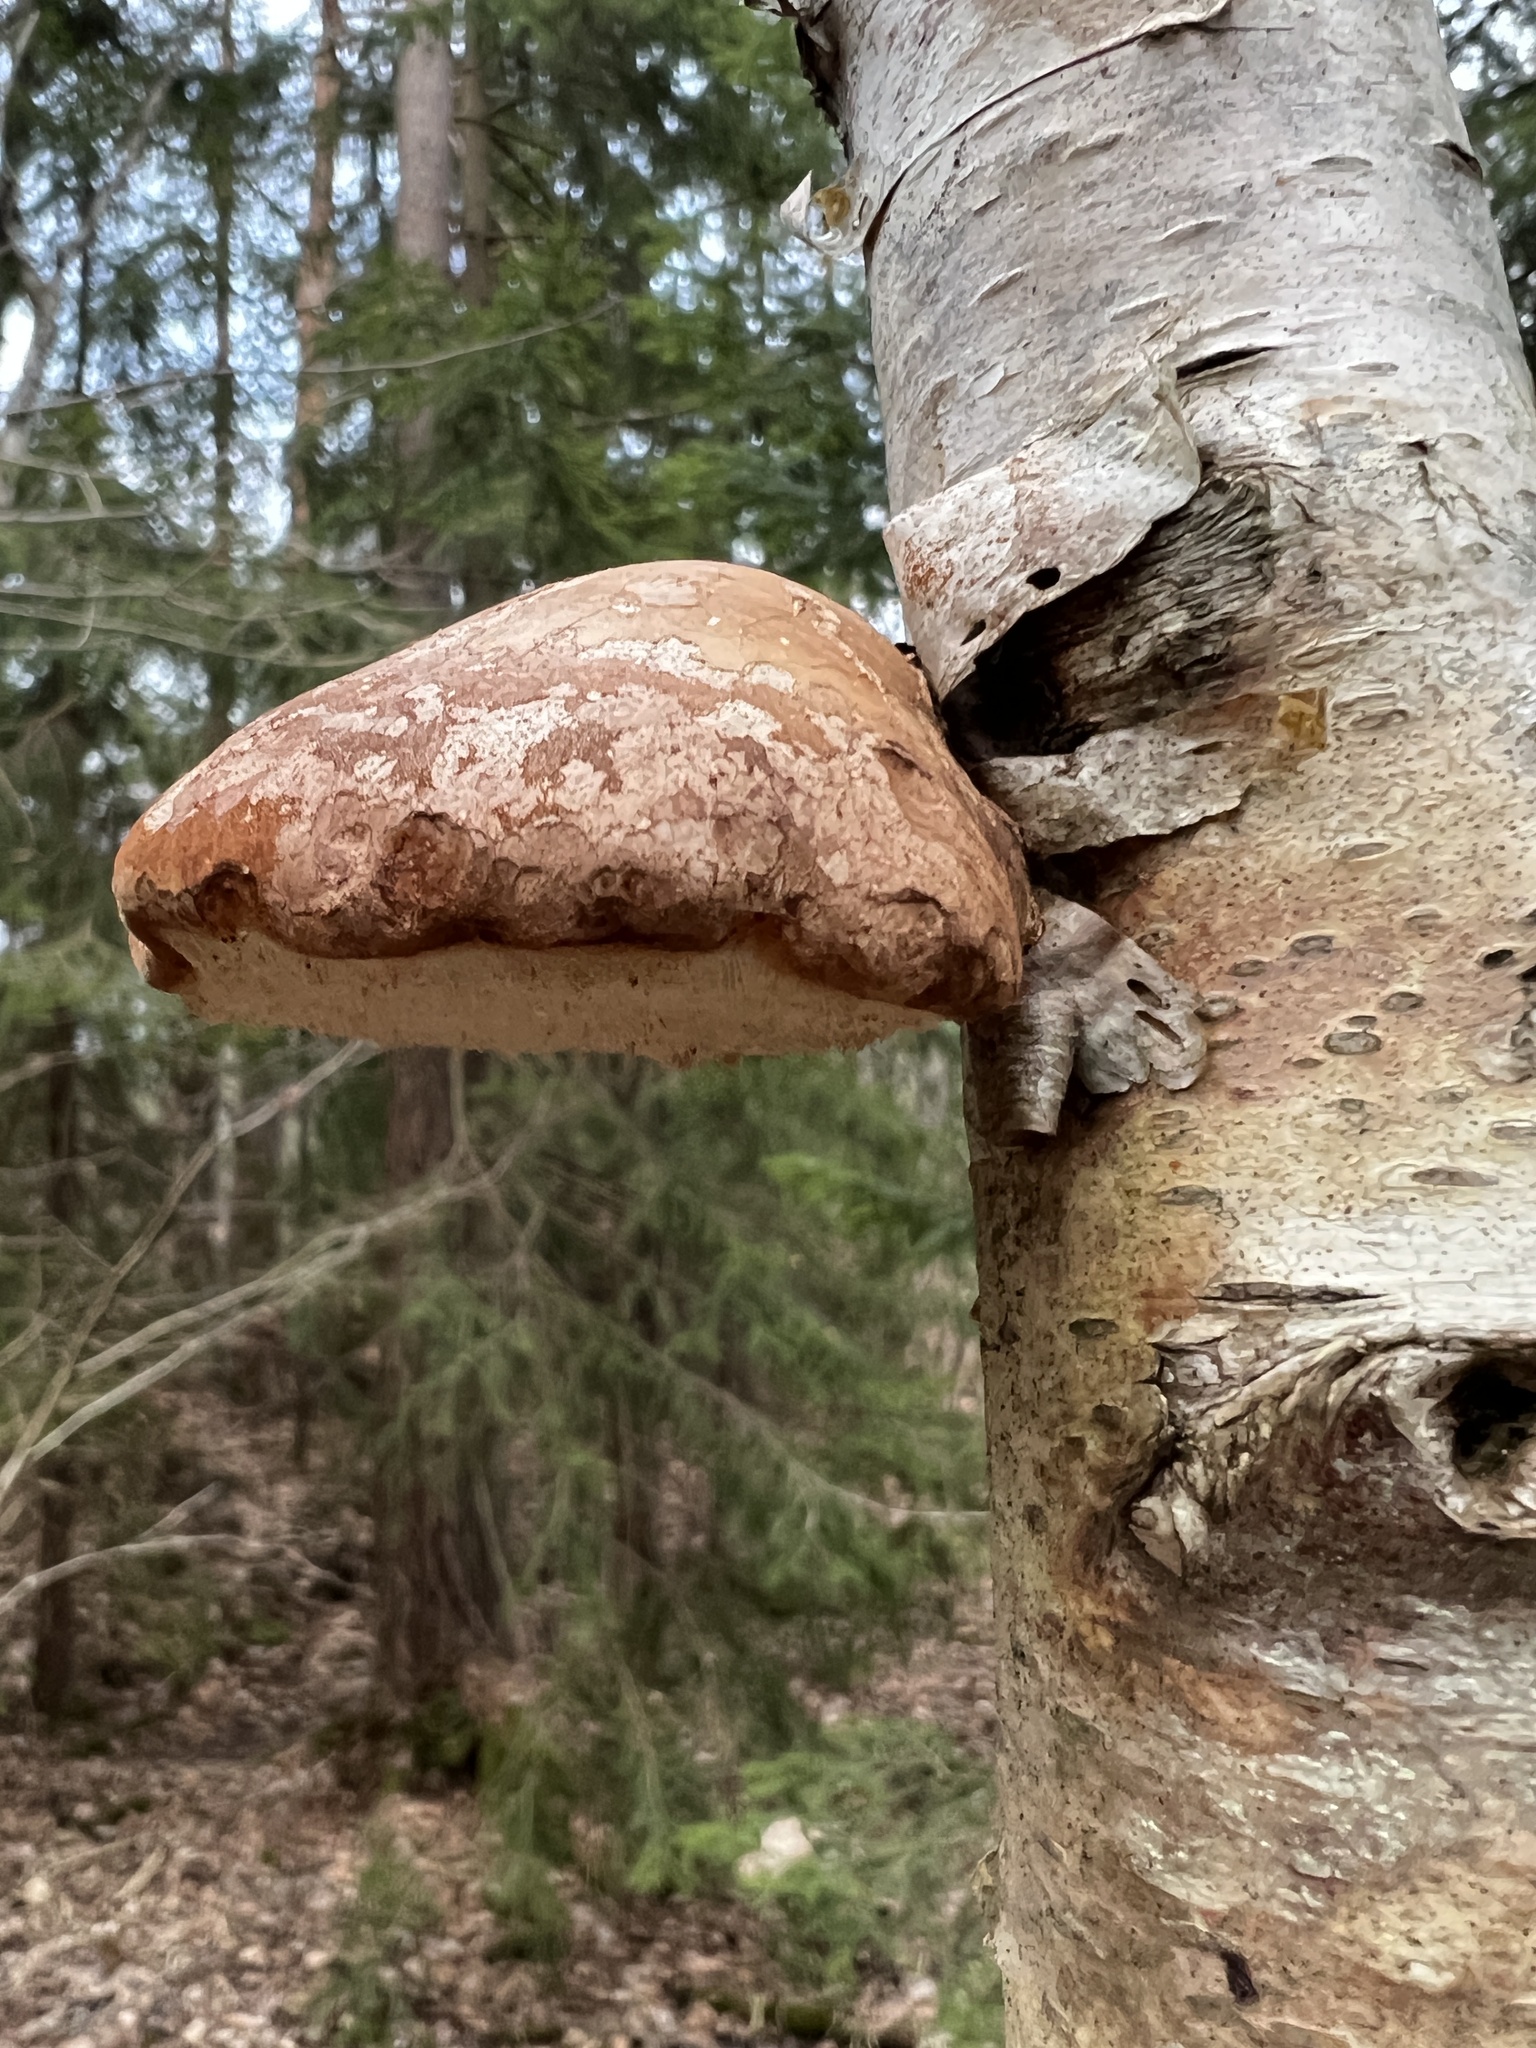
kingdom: Fungi
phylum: Basidiomycota
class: Agaricomycetes
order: Polyporales
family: Fomitopsidaceae
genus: Fomitopsis
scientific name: Fomitopsis betulina
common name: Birch polypore
